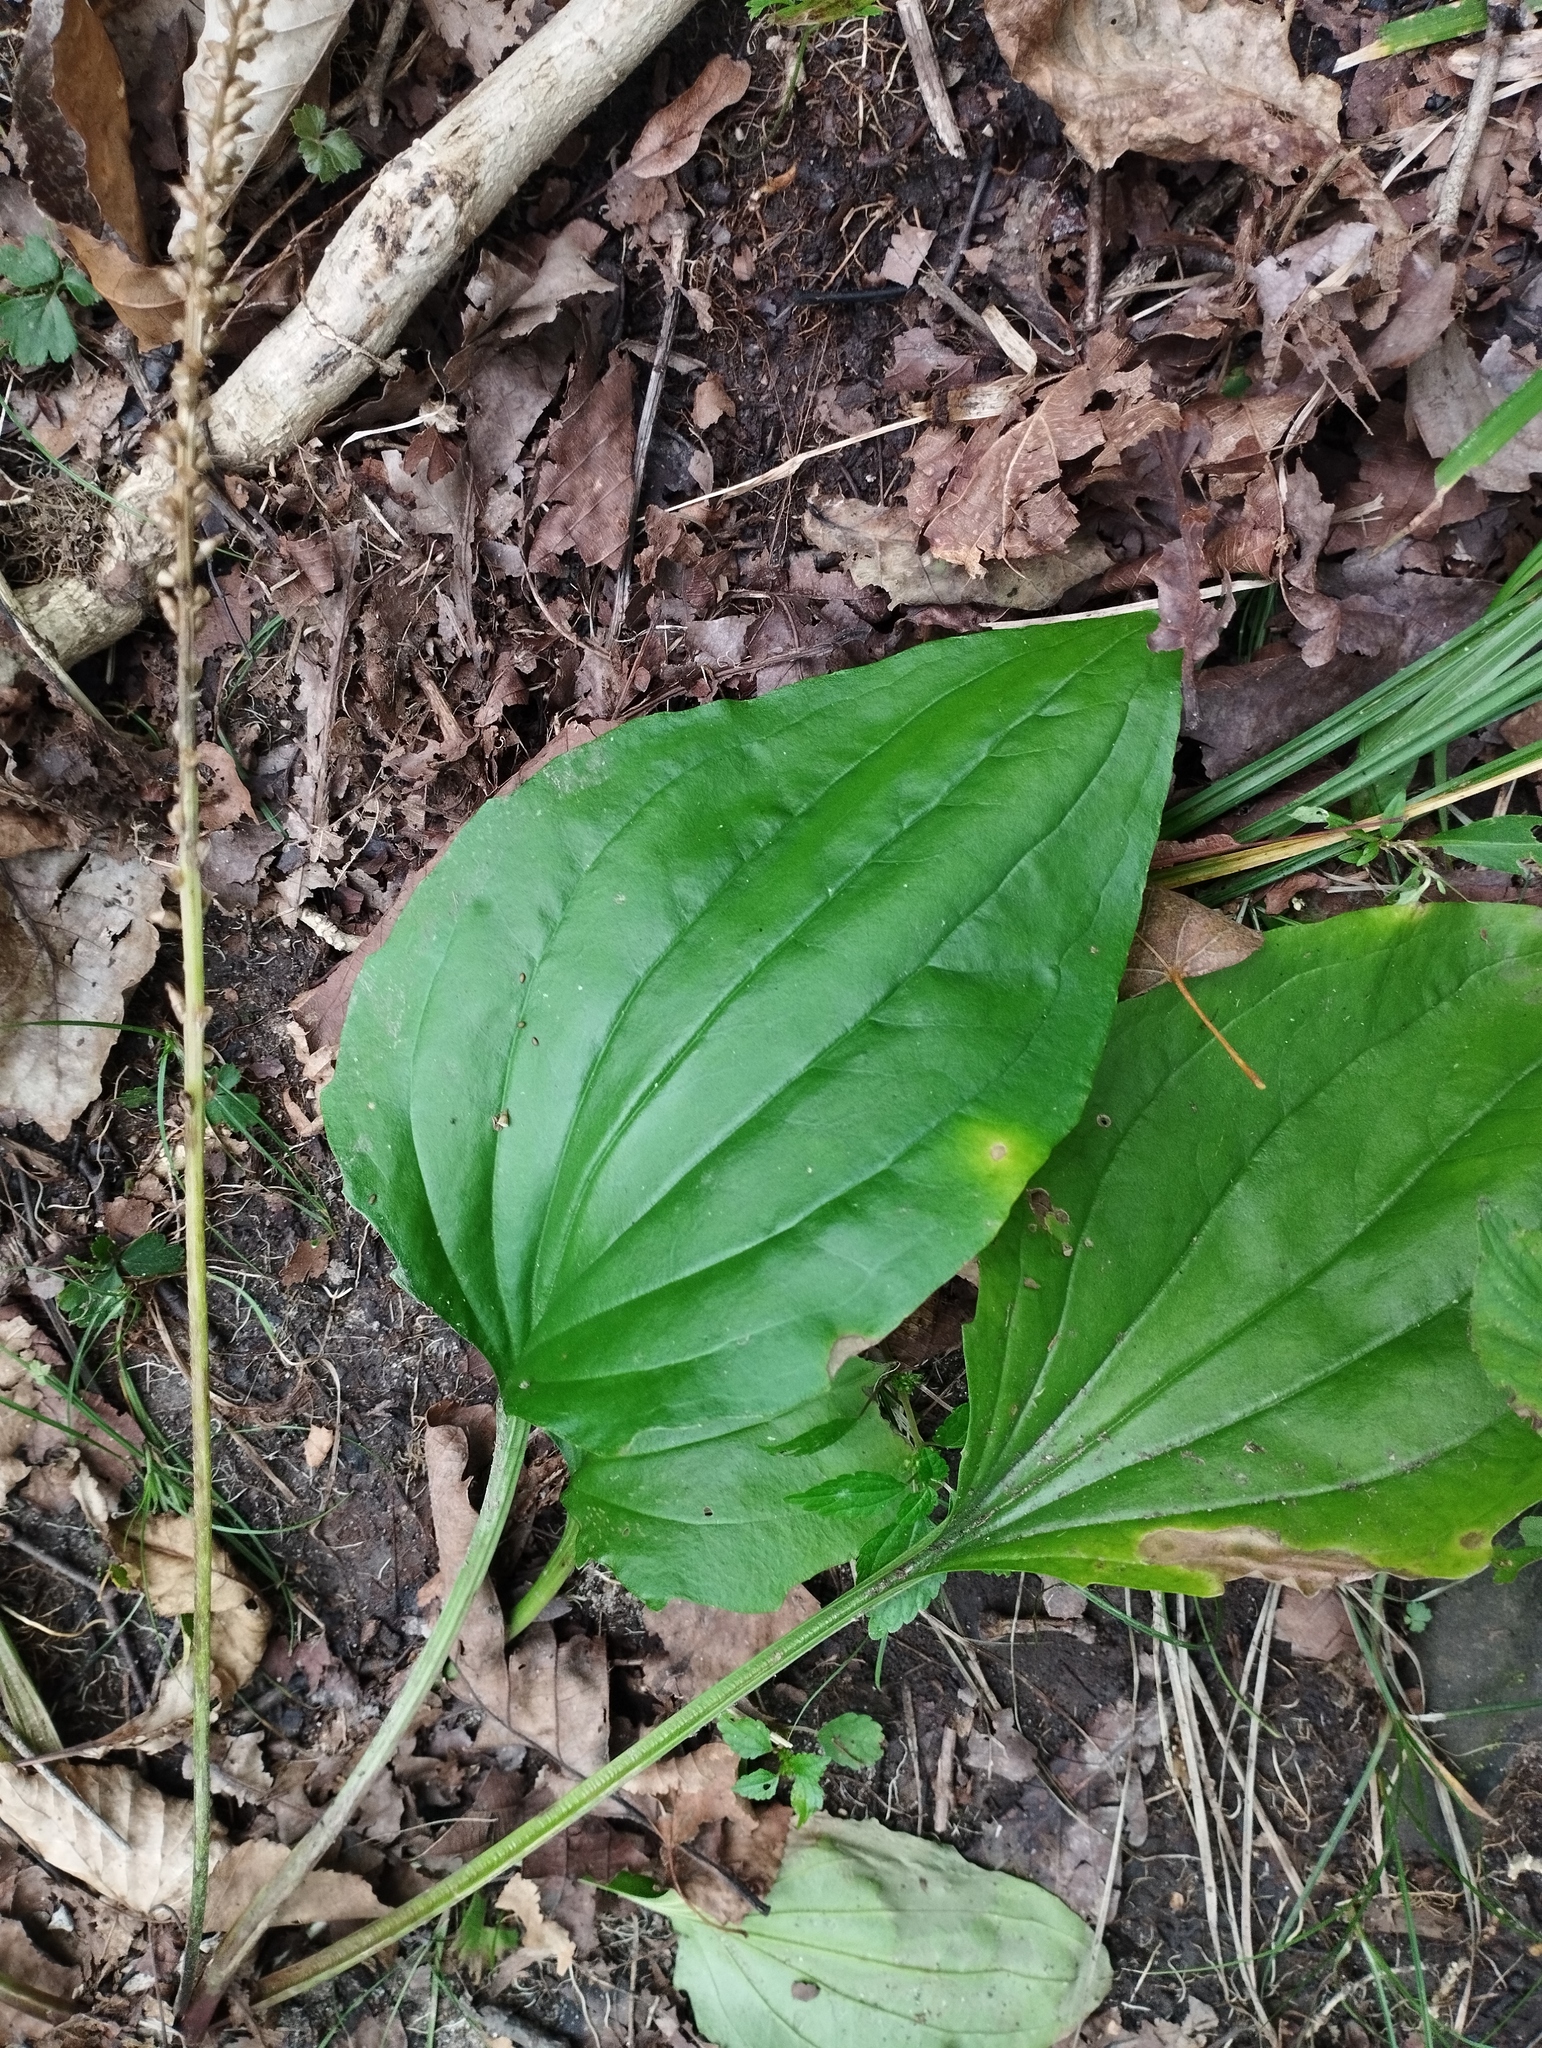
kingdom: Plantae
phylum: Tracheophyta
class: Magnoliopsida
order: Lamiales
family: Plantaginaceae
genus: Plantago
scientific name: Plantago asiatica
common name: Psyllium
